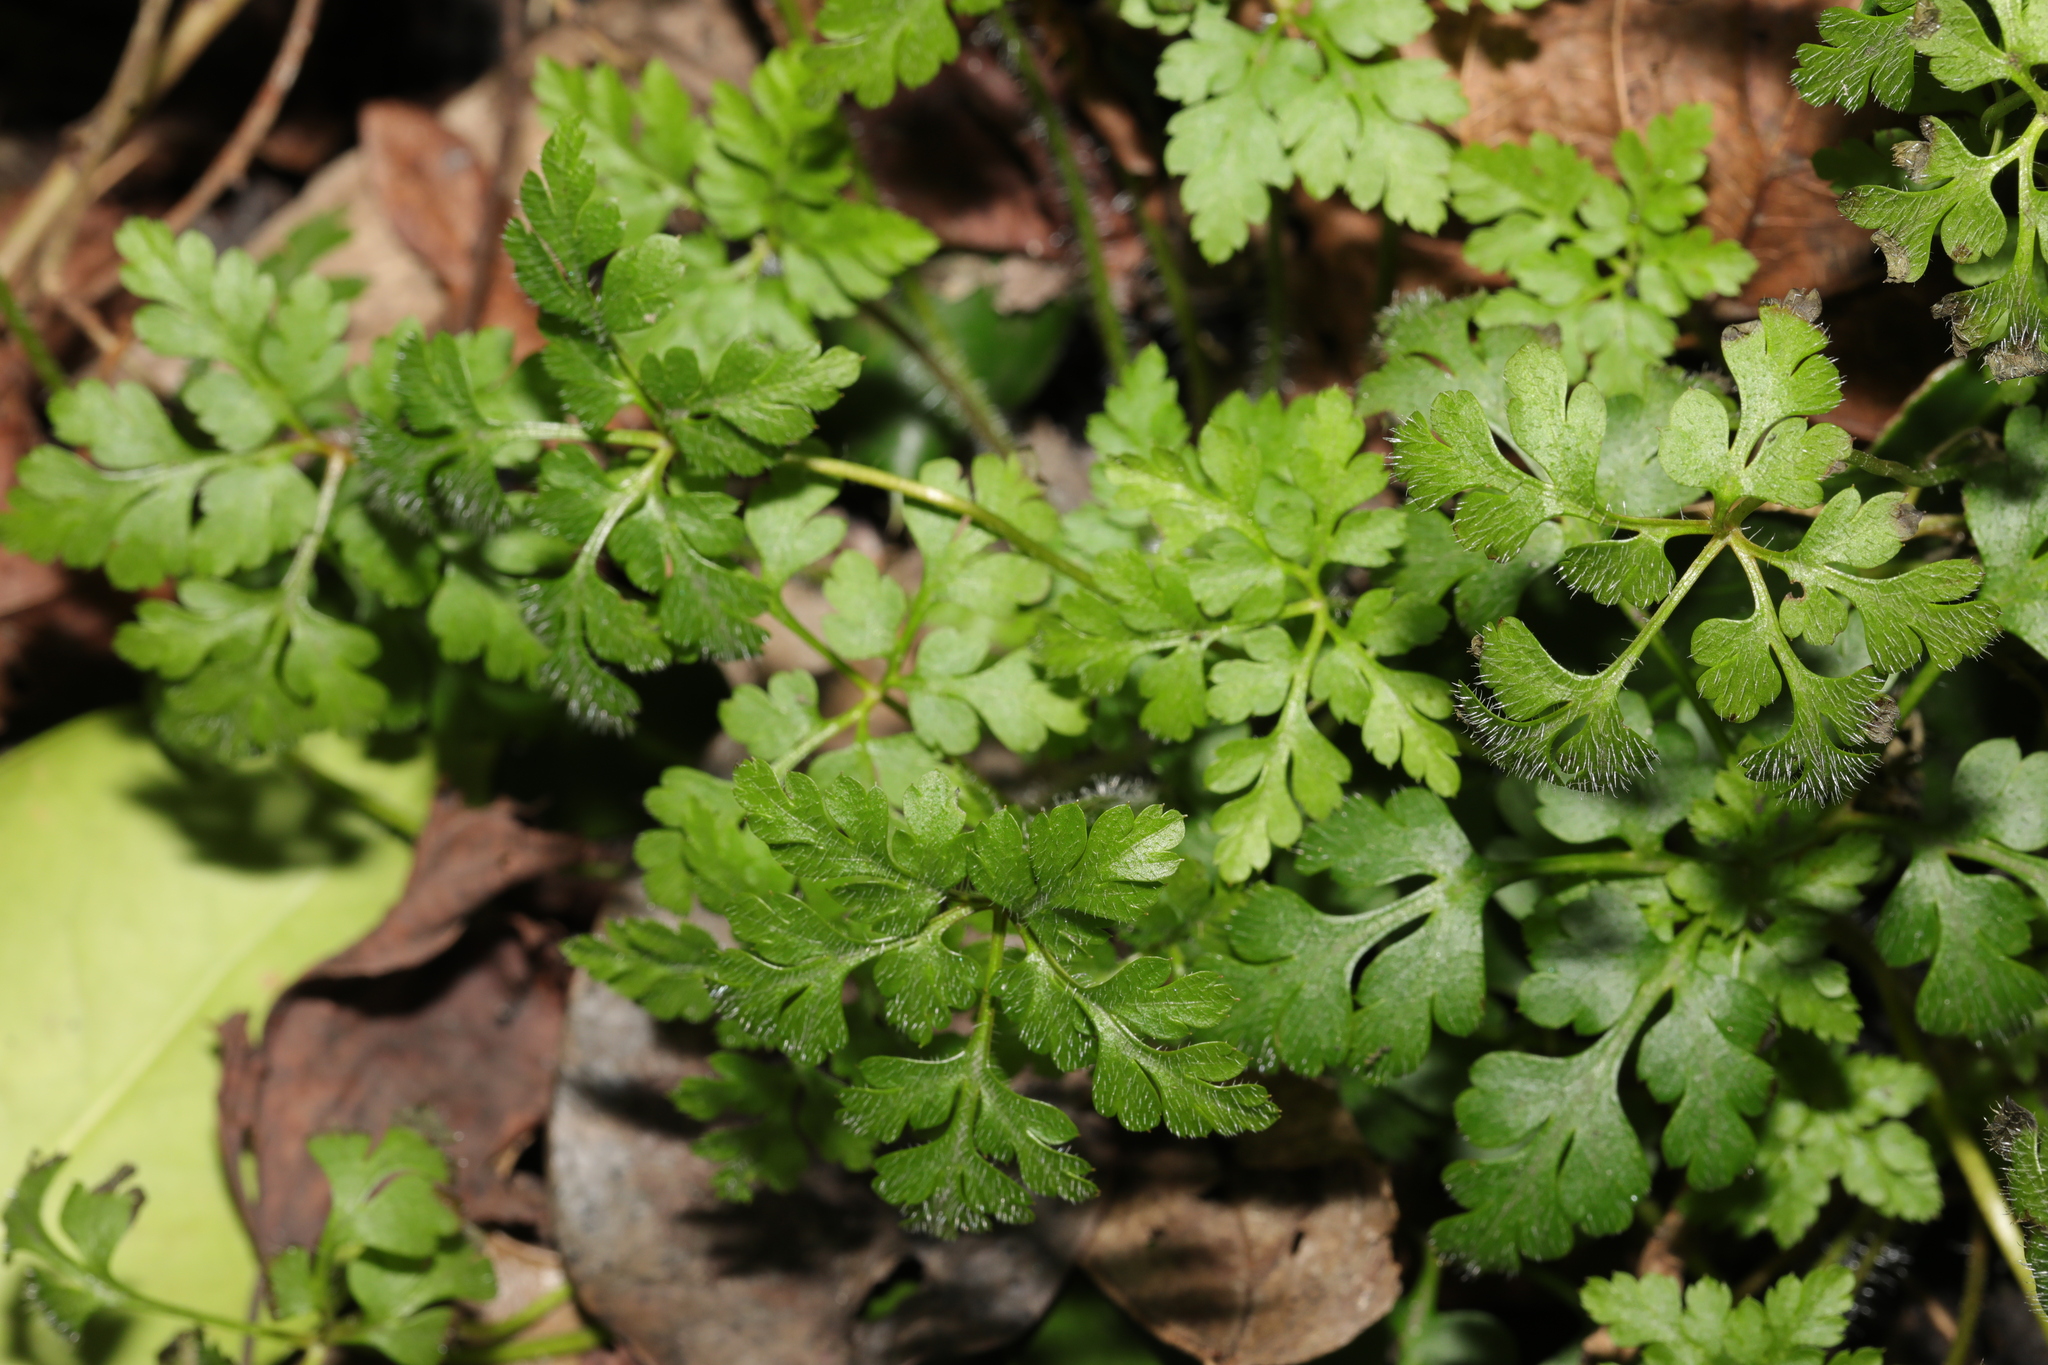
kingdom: Plantae
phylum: Tracheophyta
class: Magnoliopsida
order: Geraniales
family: Geraniaceae
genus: Geranium
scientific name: Geranium robertianum
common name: Herb-robert
